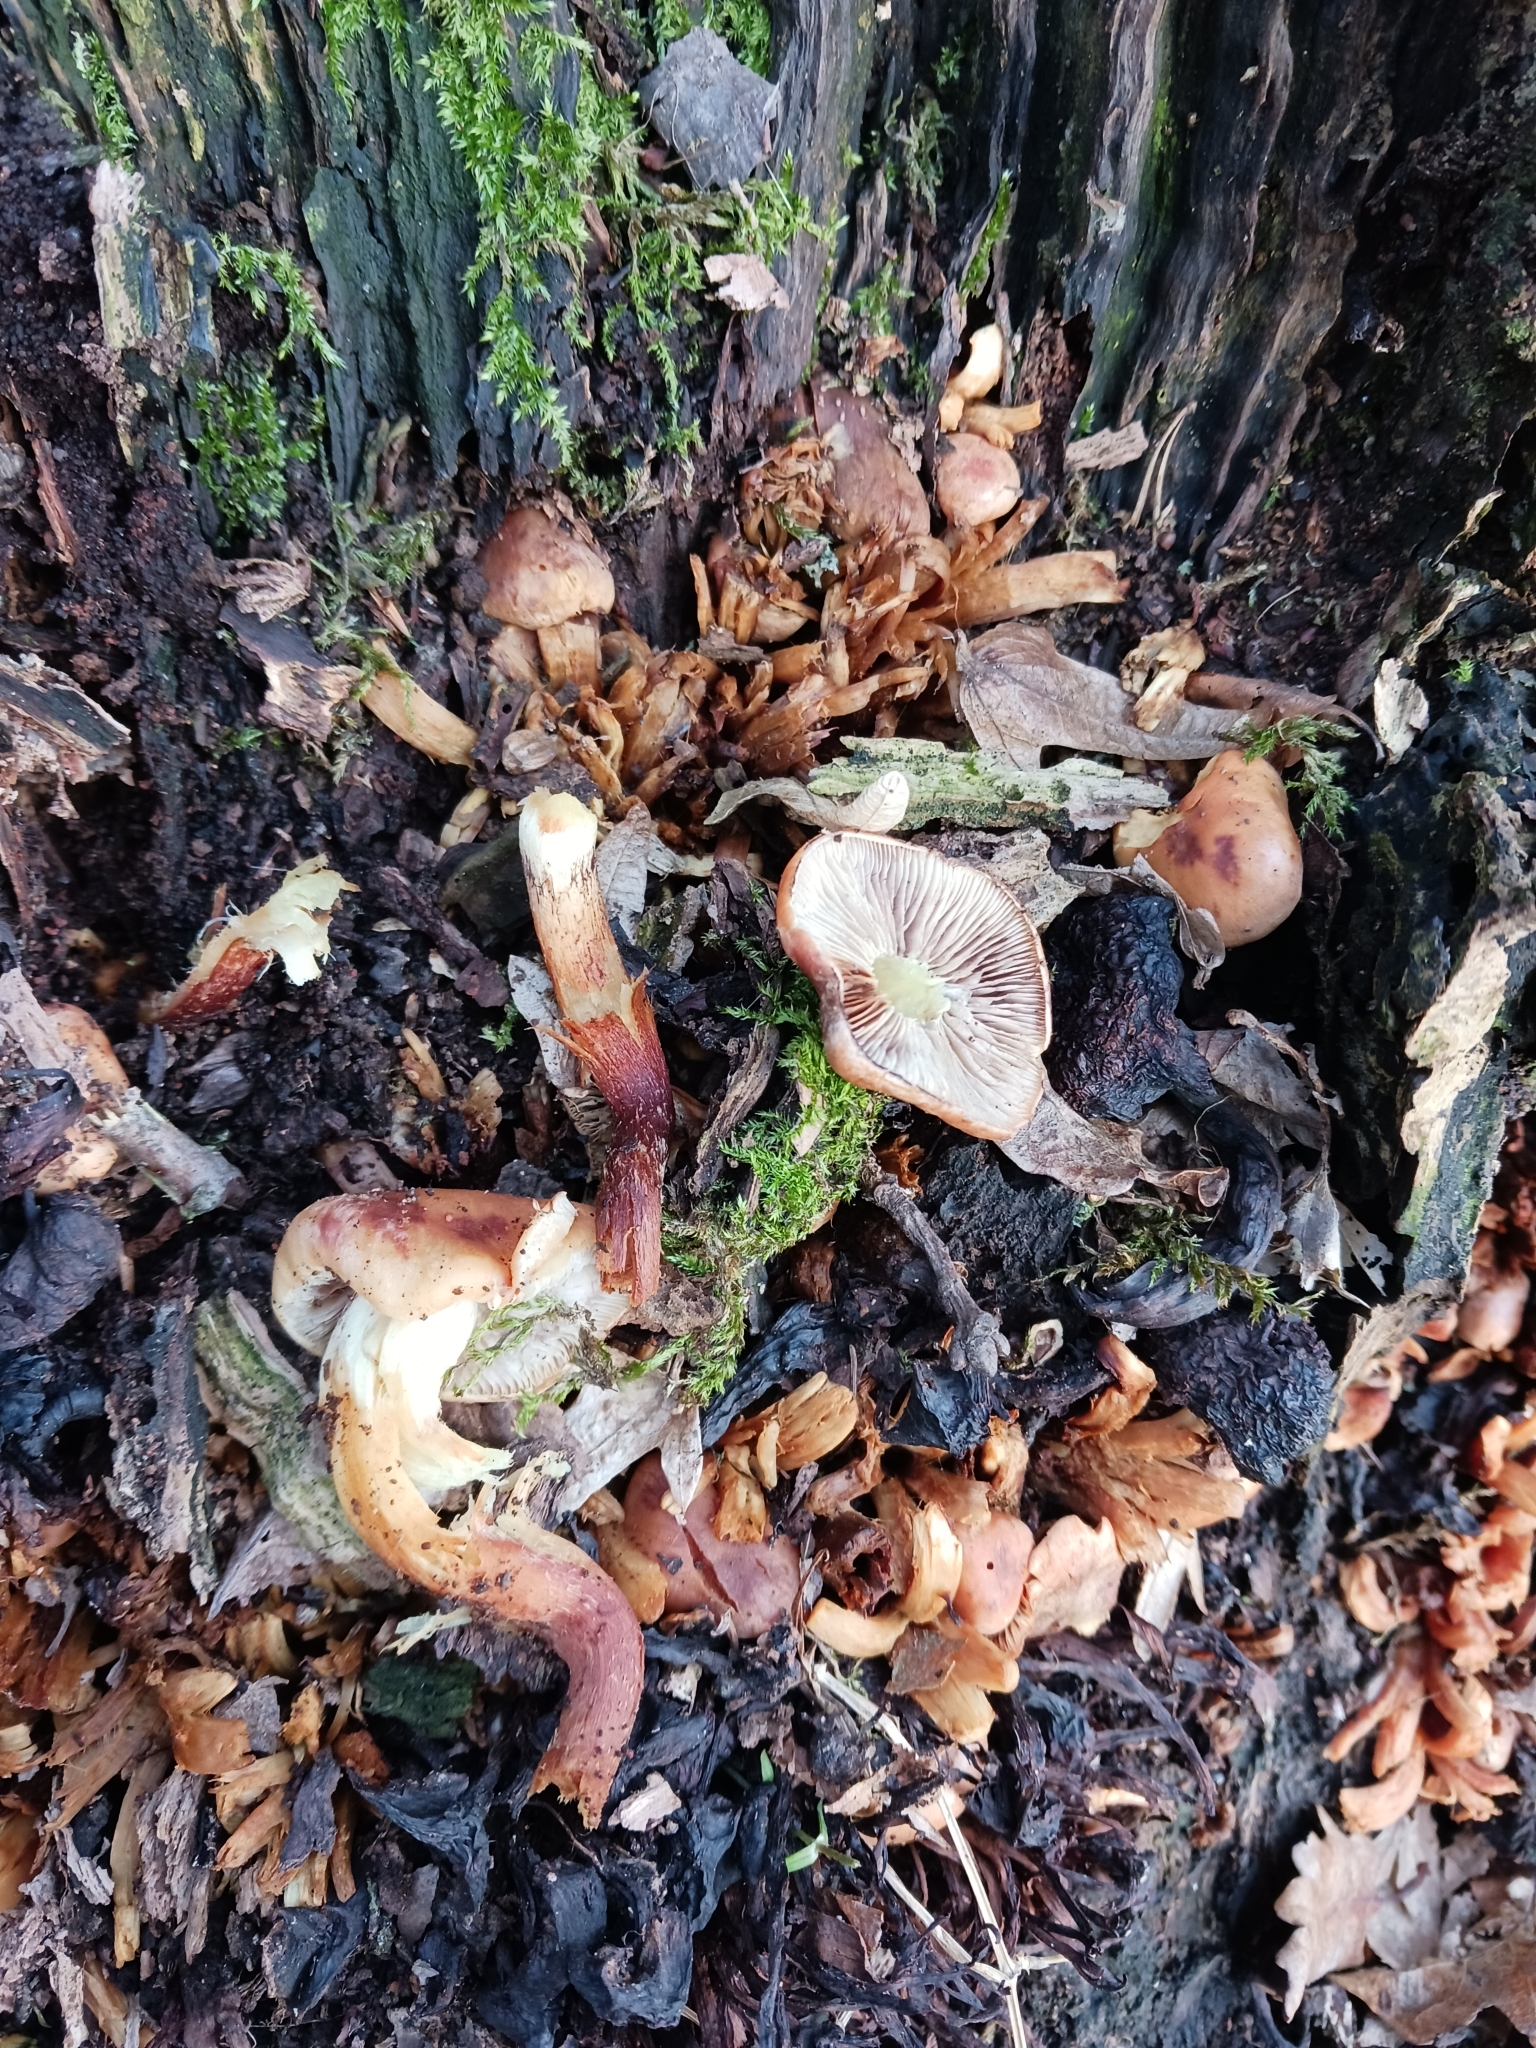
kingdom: Fungi
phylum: Basidiomycota
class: Agaricomycetes
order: Agaricales
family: Strophariaceae
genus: Hypholoma
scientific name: Hypholoma lateritium
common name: Brick caps
